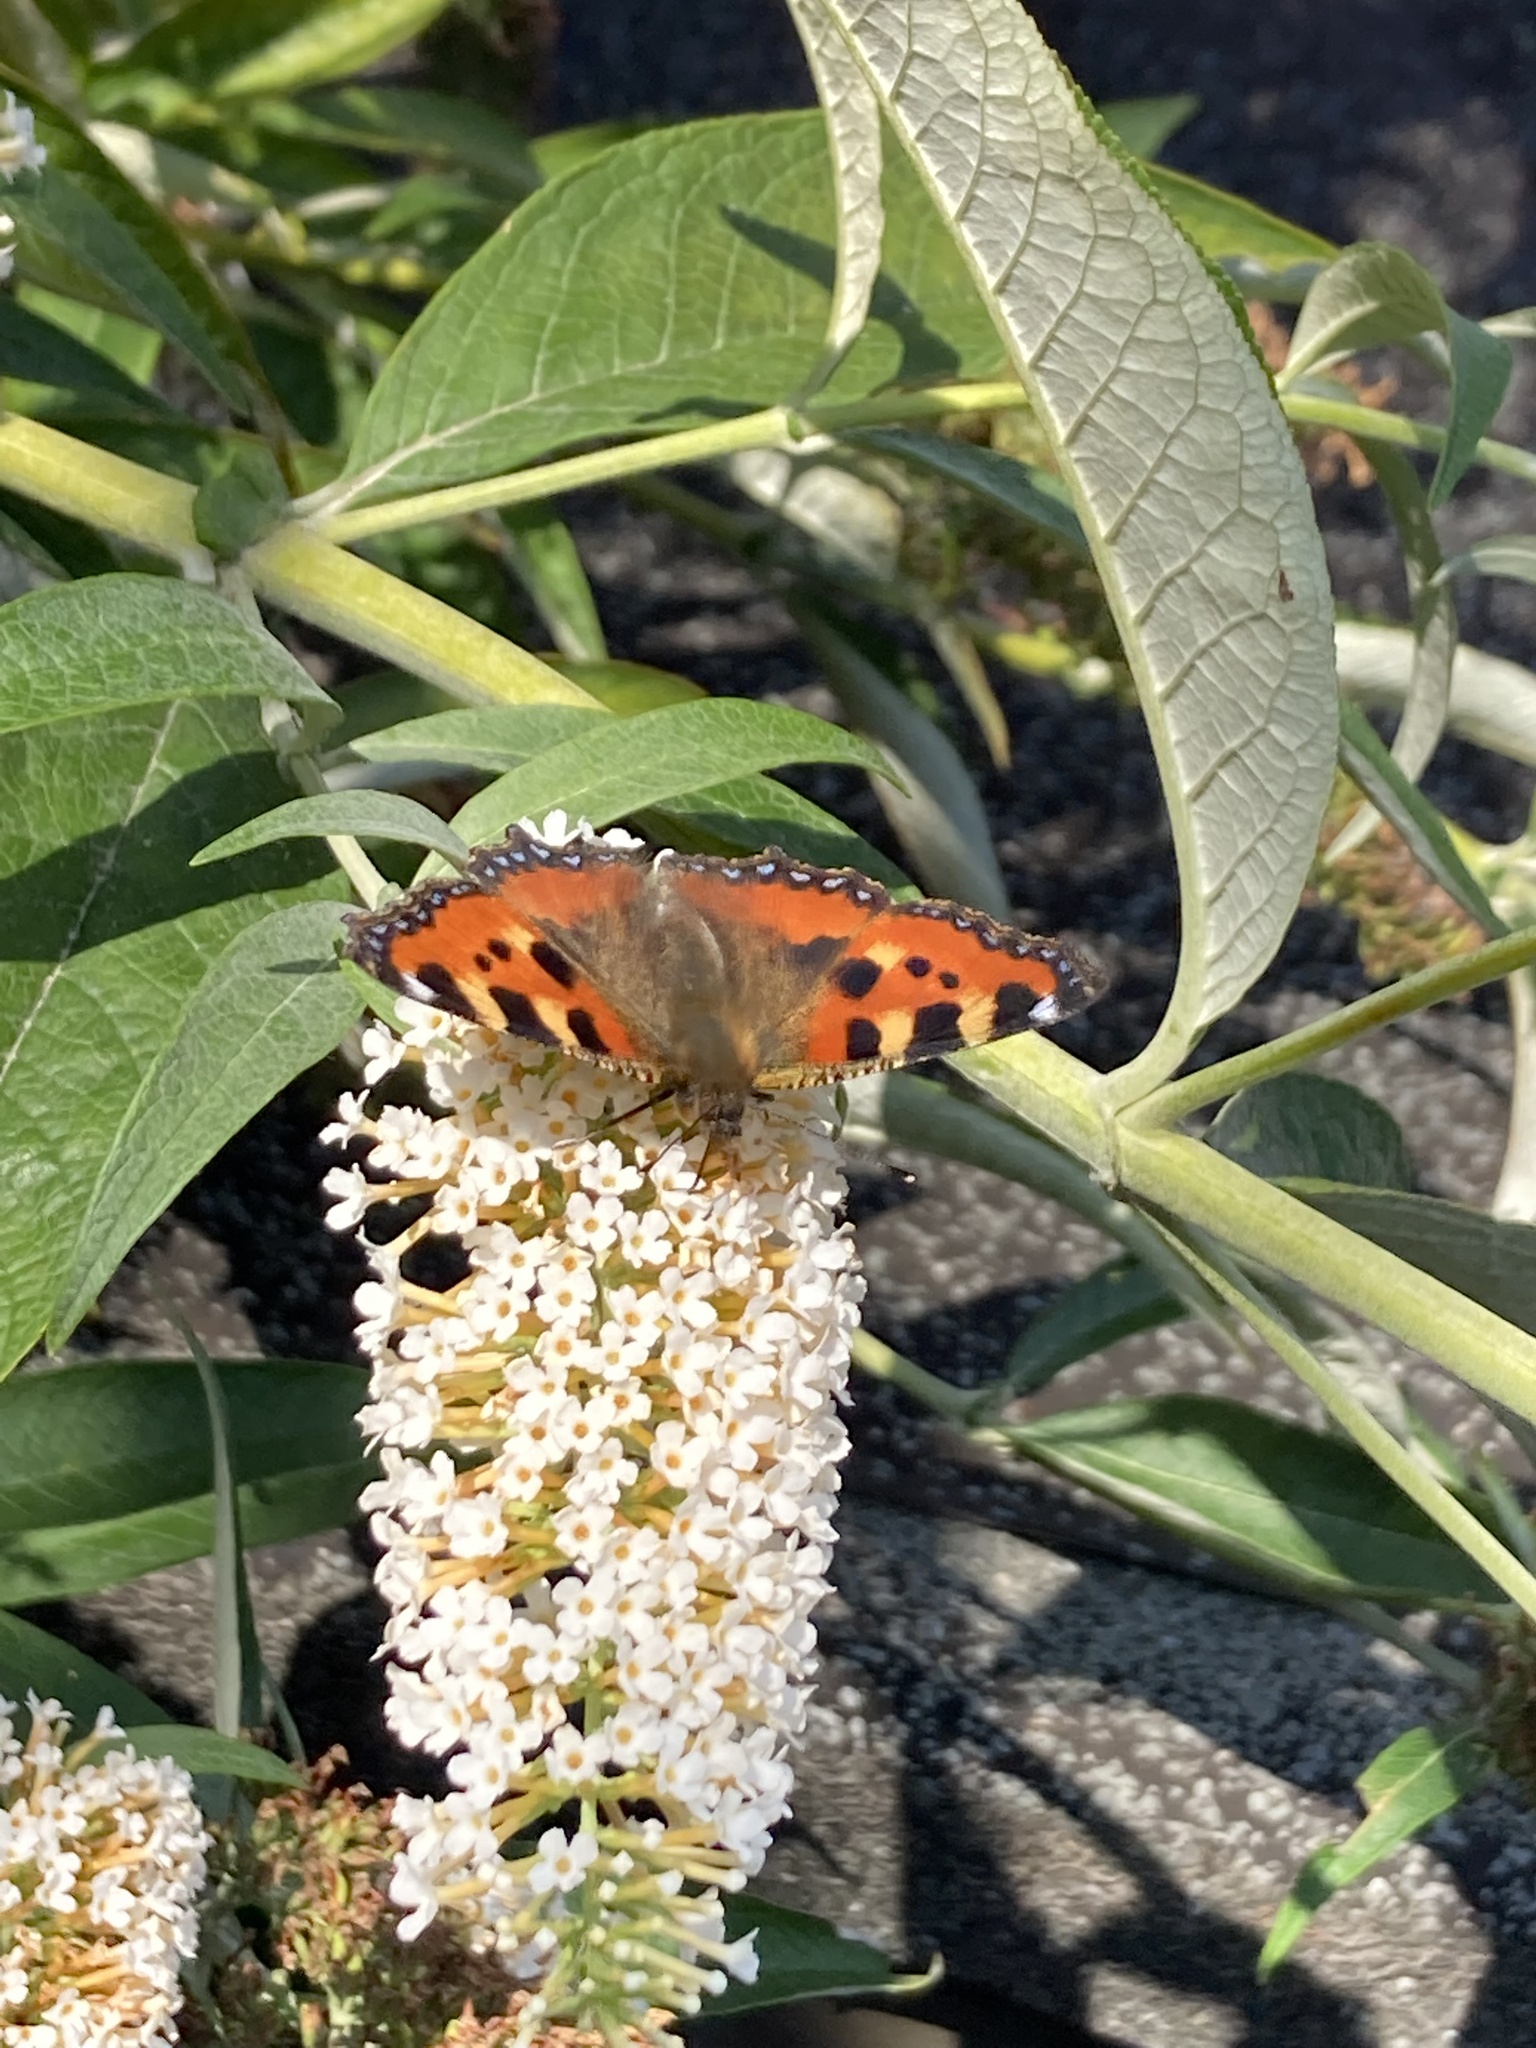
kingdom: Animalia
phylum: Arthropoda
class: Insecta
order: Lepidoptera
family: Nymphalidae
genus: Aglais
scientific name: Aglais urticae
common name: Small tortoiseshell
